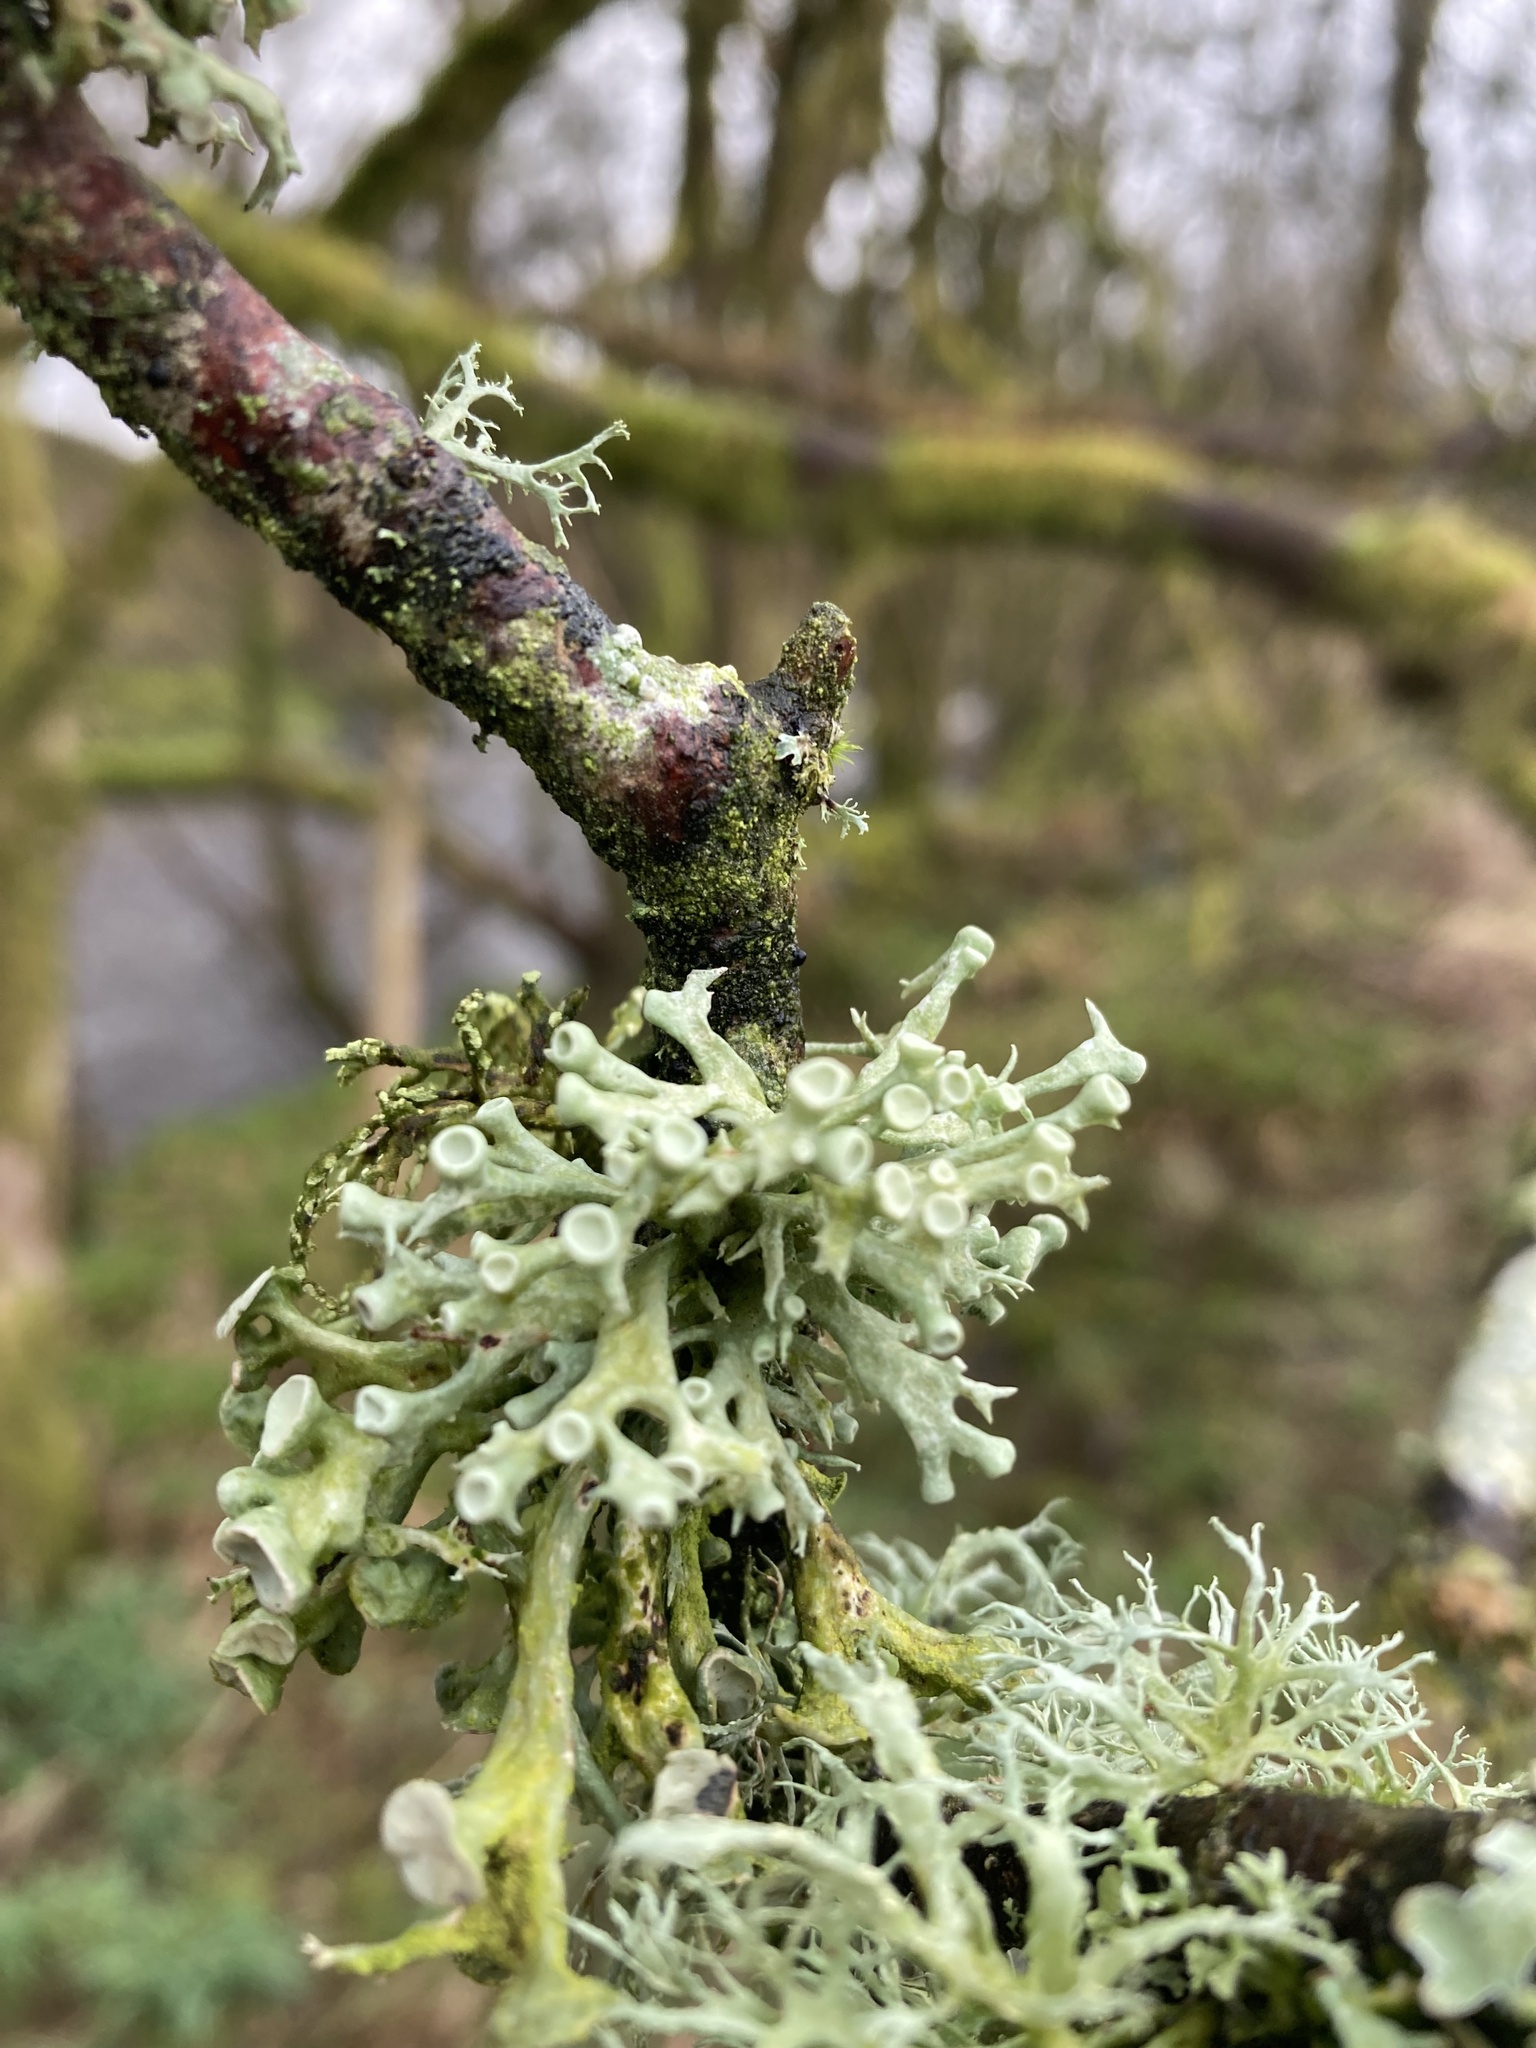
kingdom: Fungi
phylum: Ascomycota
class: Lecanoromycetes
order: Lecanorales
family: Ramalinaceae
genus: Ramalina
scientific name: Ramalina fastigiata
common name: Dotted ribbon lichen
